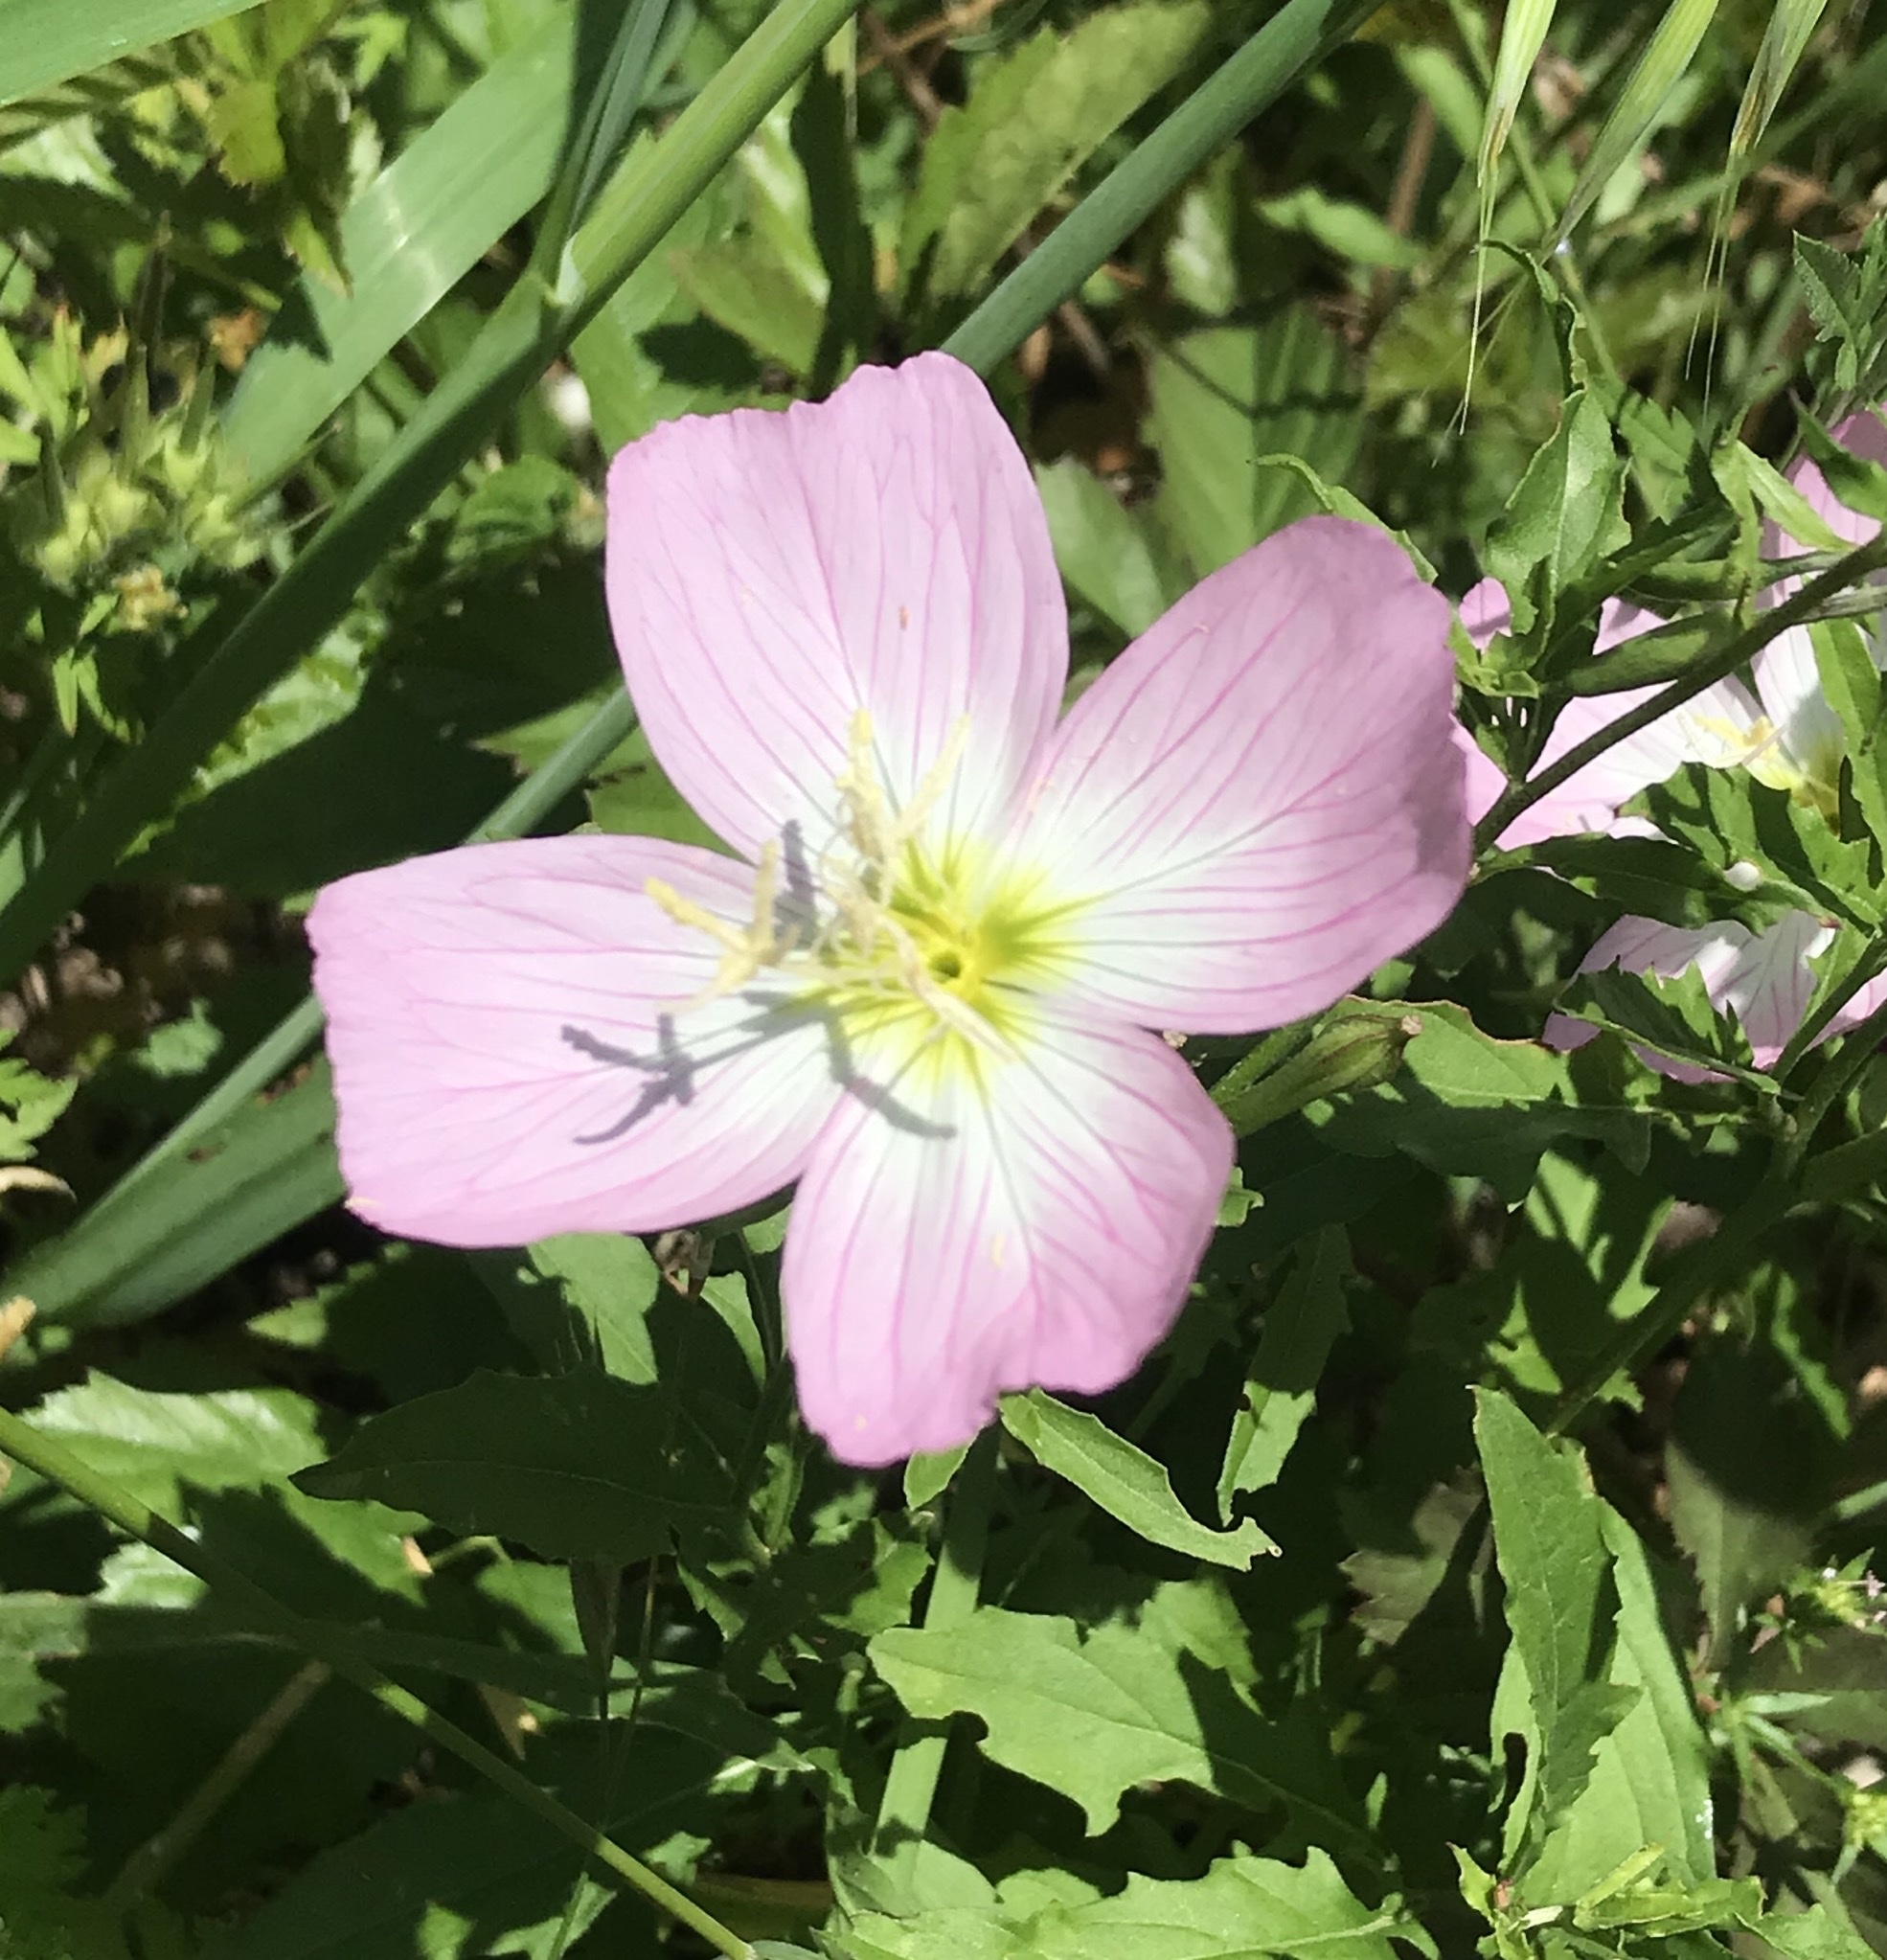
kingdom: Plantae
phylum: Tracheophyta
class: Magnoliopsida
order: Myrtales
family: Onagraceae
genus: Oenothera
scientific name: Oenothera speciosa
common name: White evening-primrose
